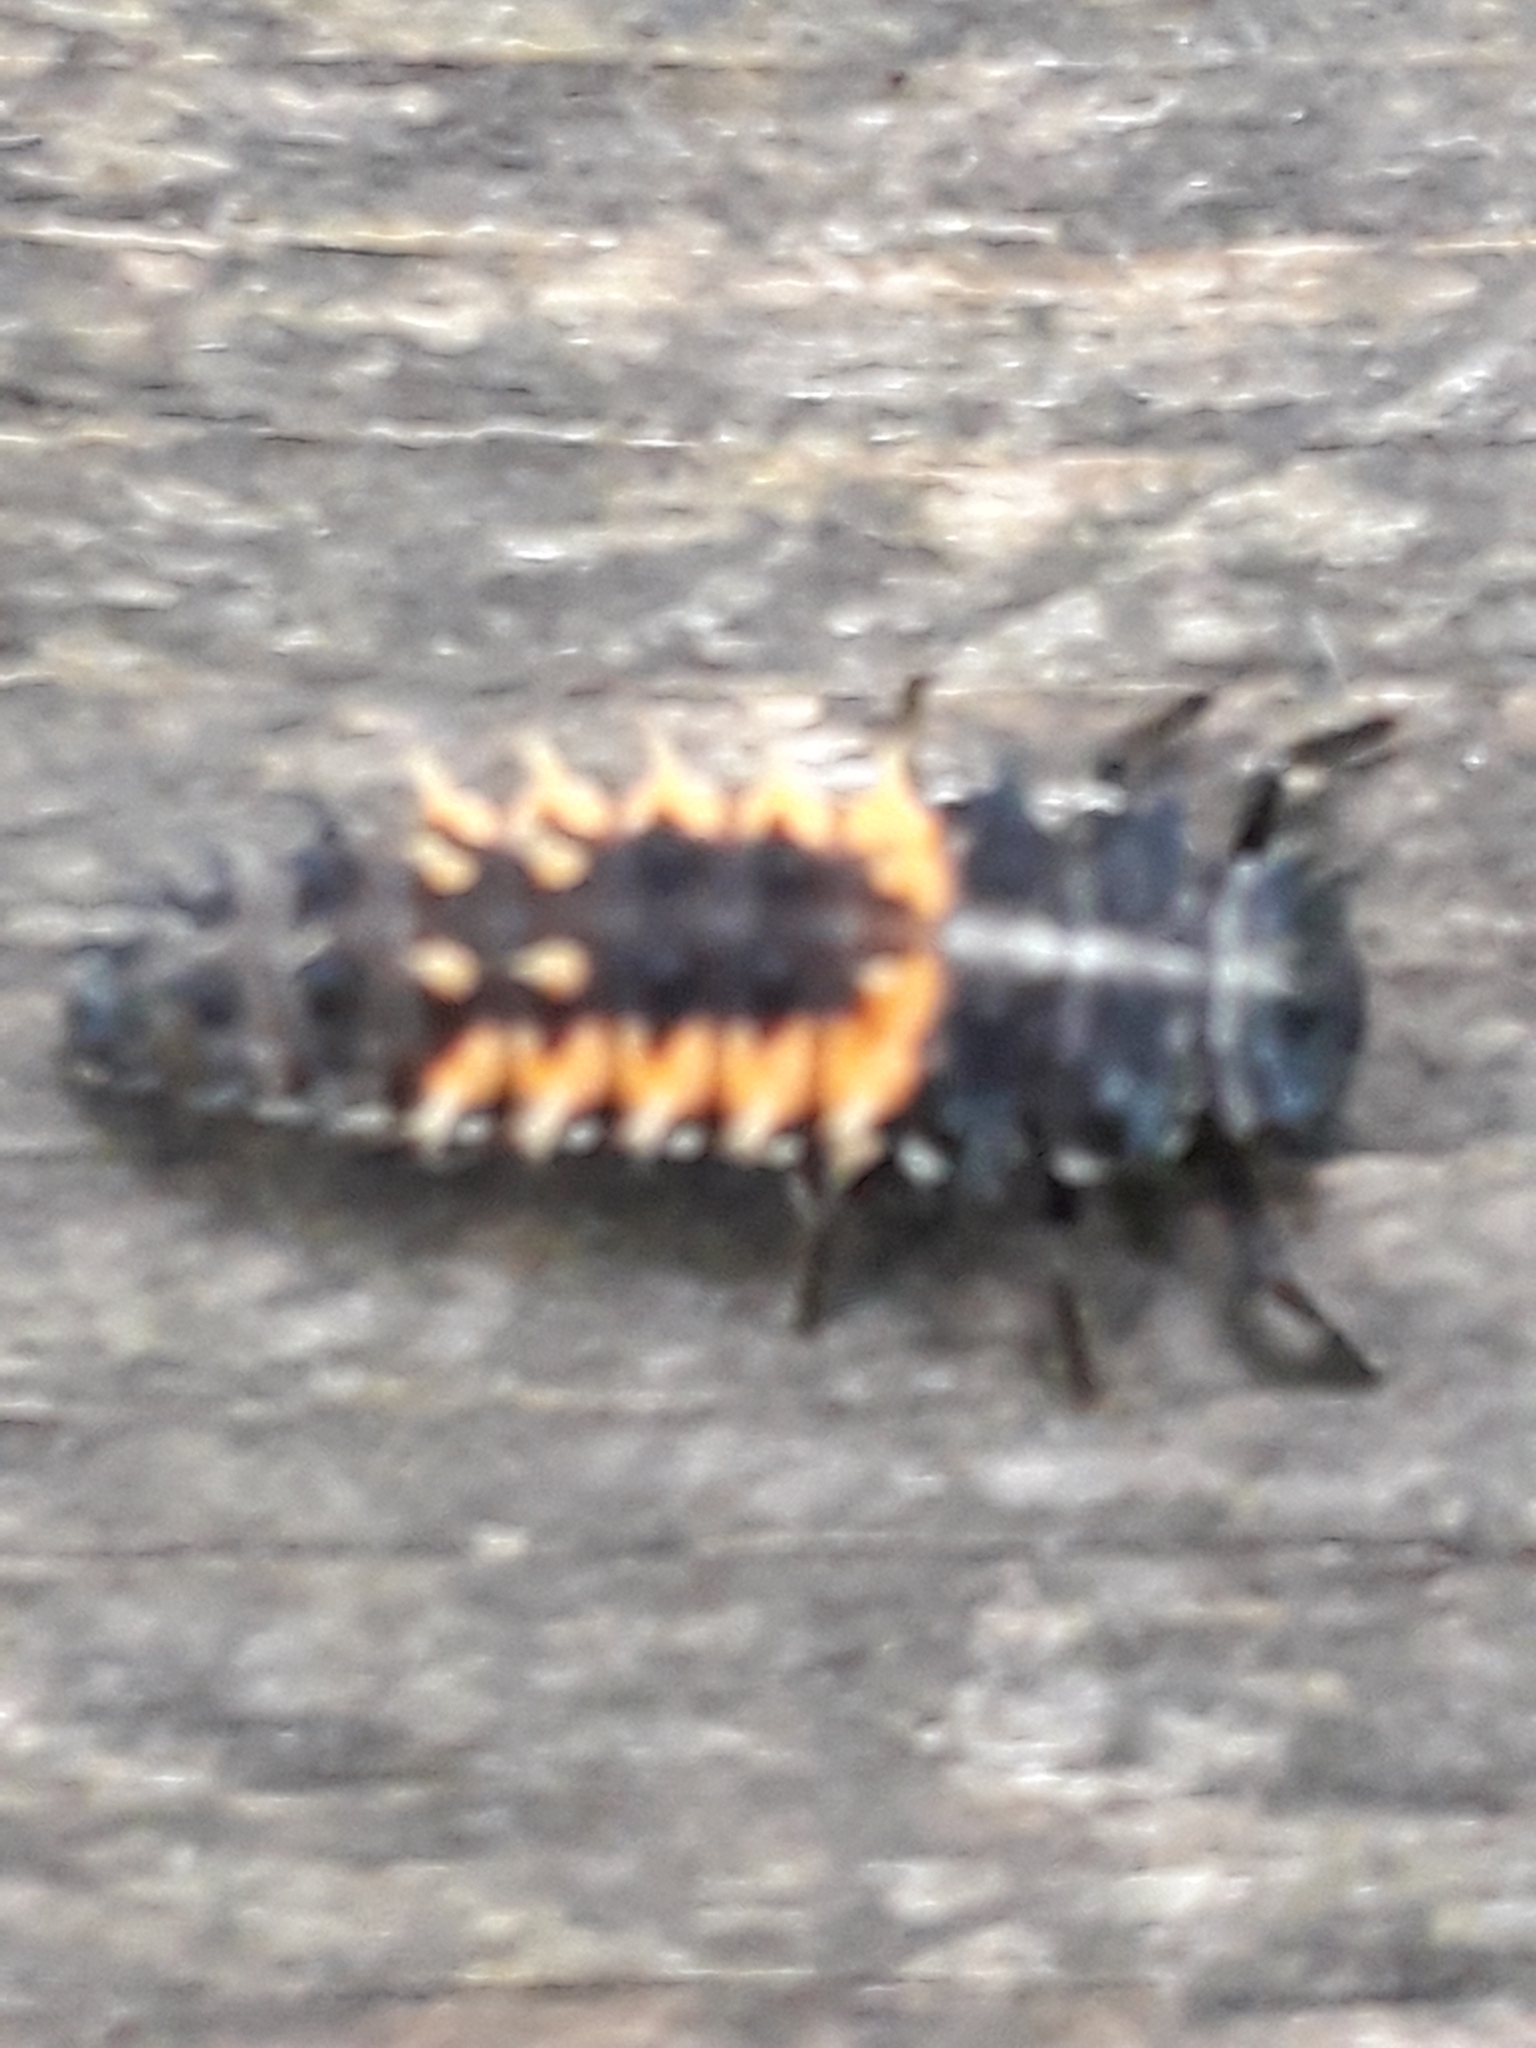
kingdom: Animalia
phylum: Arthropoda
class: Insecta
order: Coleoptera
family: Coccinellidae
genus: Harmonia
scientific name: Harmonia axyridis
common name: Harlequin ladybird
